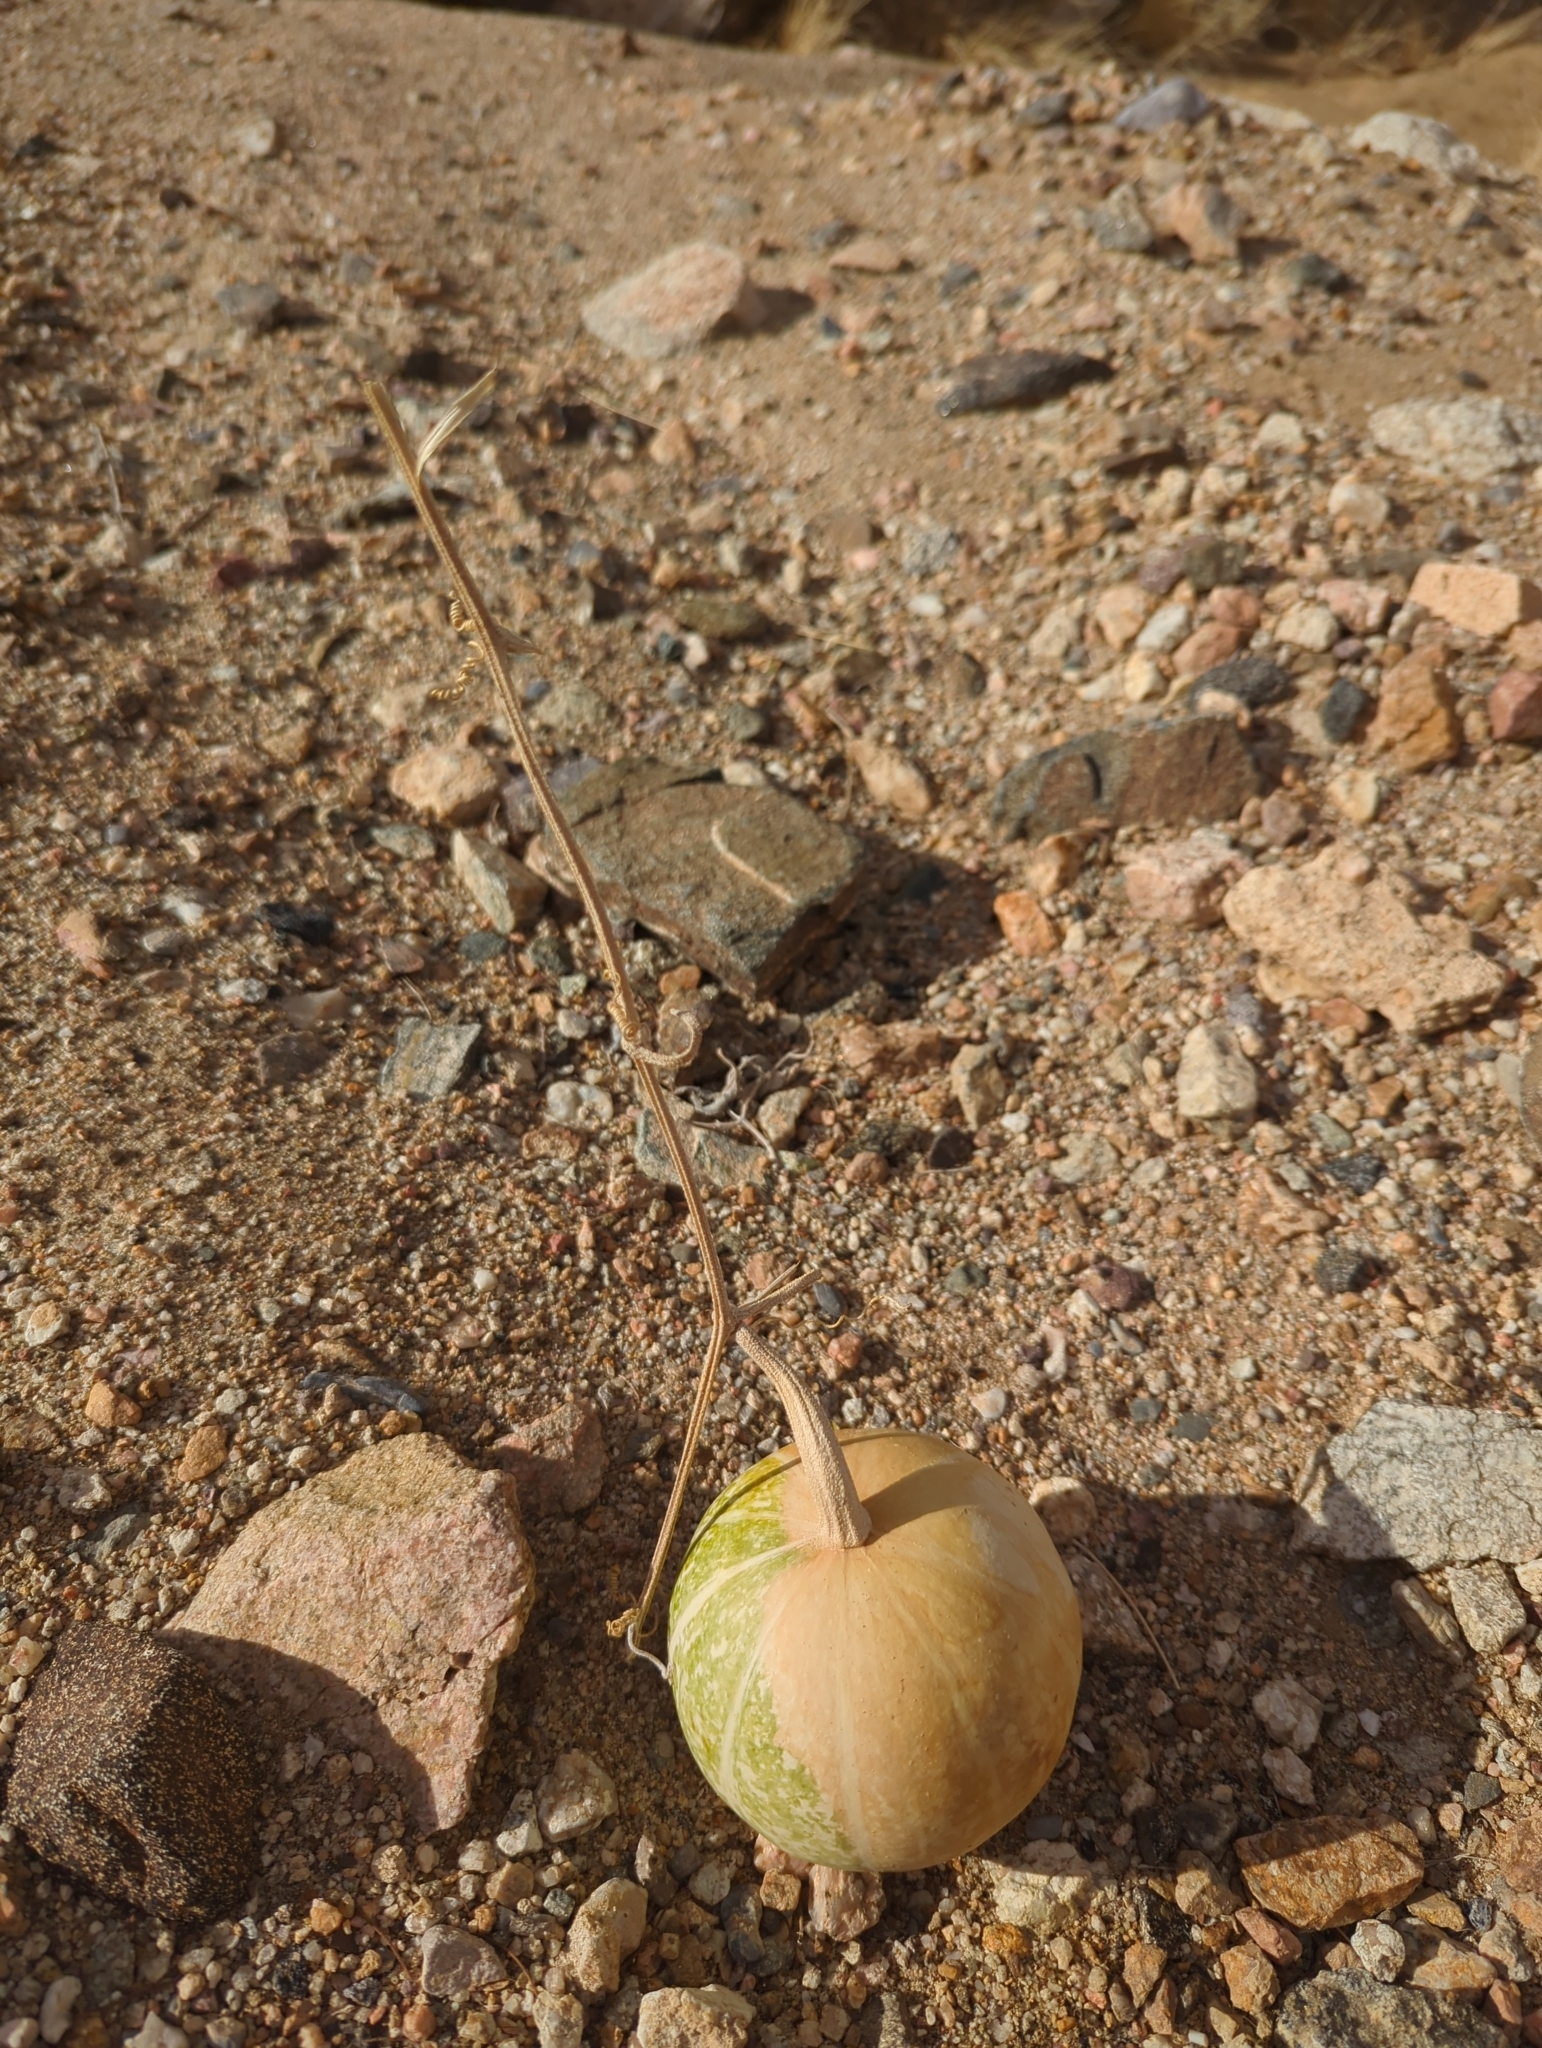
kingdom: Plantae
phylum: Tracheophyta
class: Magnoliopsida
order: Cucurbitales
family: Cucurbitaceae
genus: Cucurbita
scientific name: Cucurbita palmata
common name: Coyote-melon
